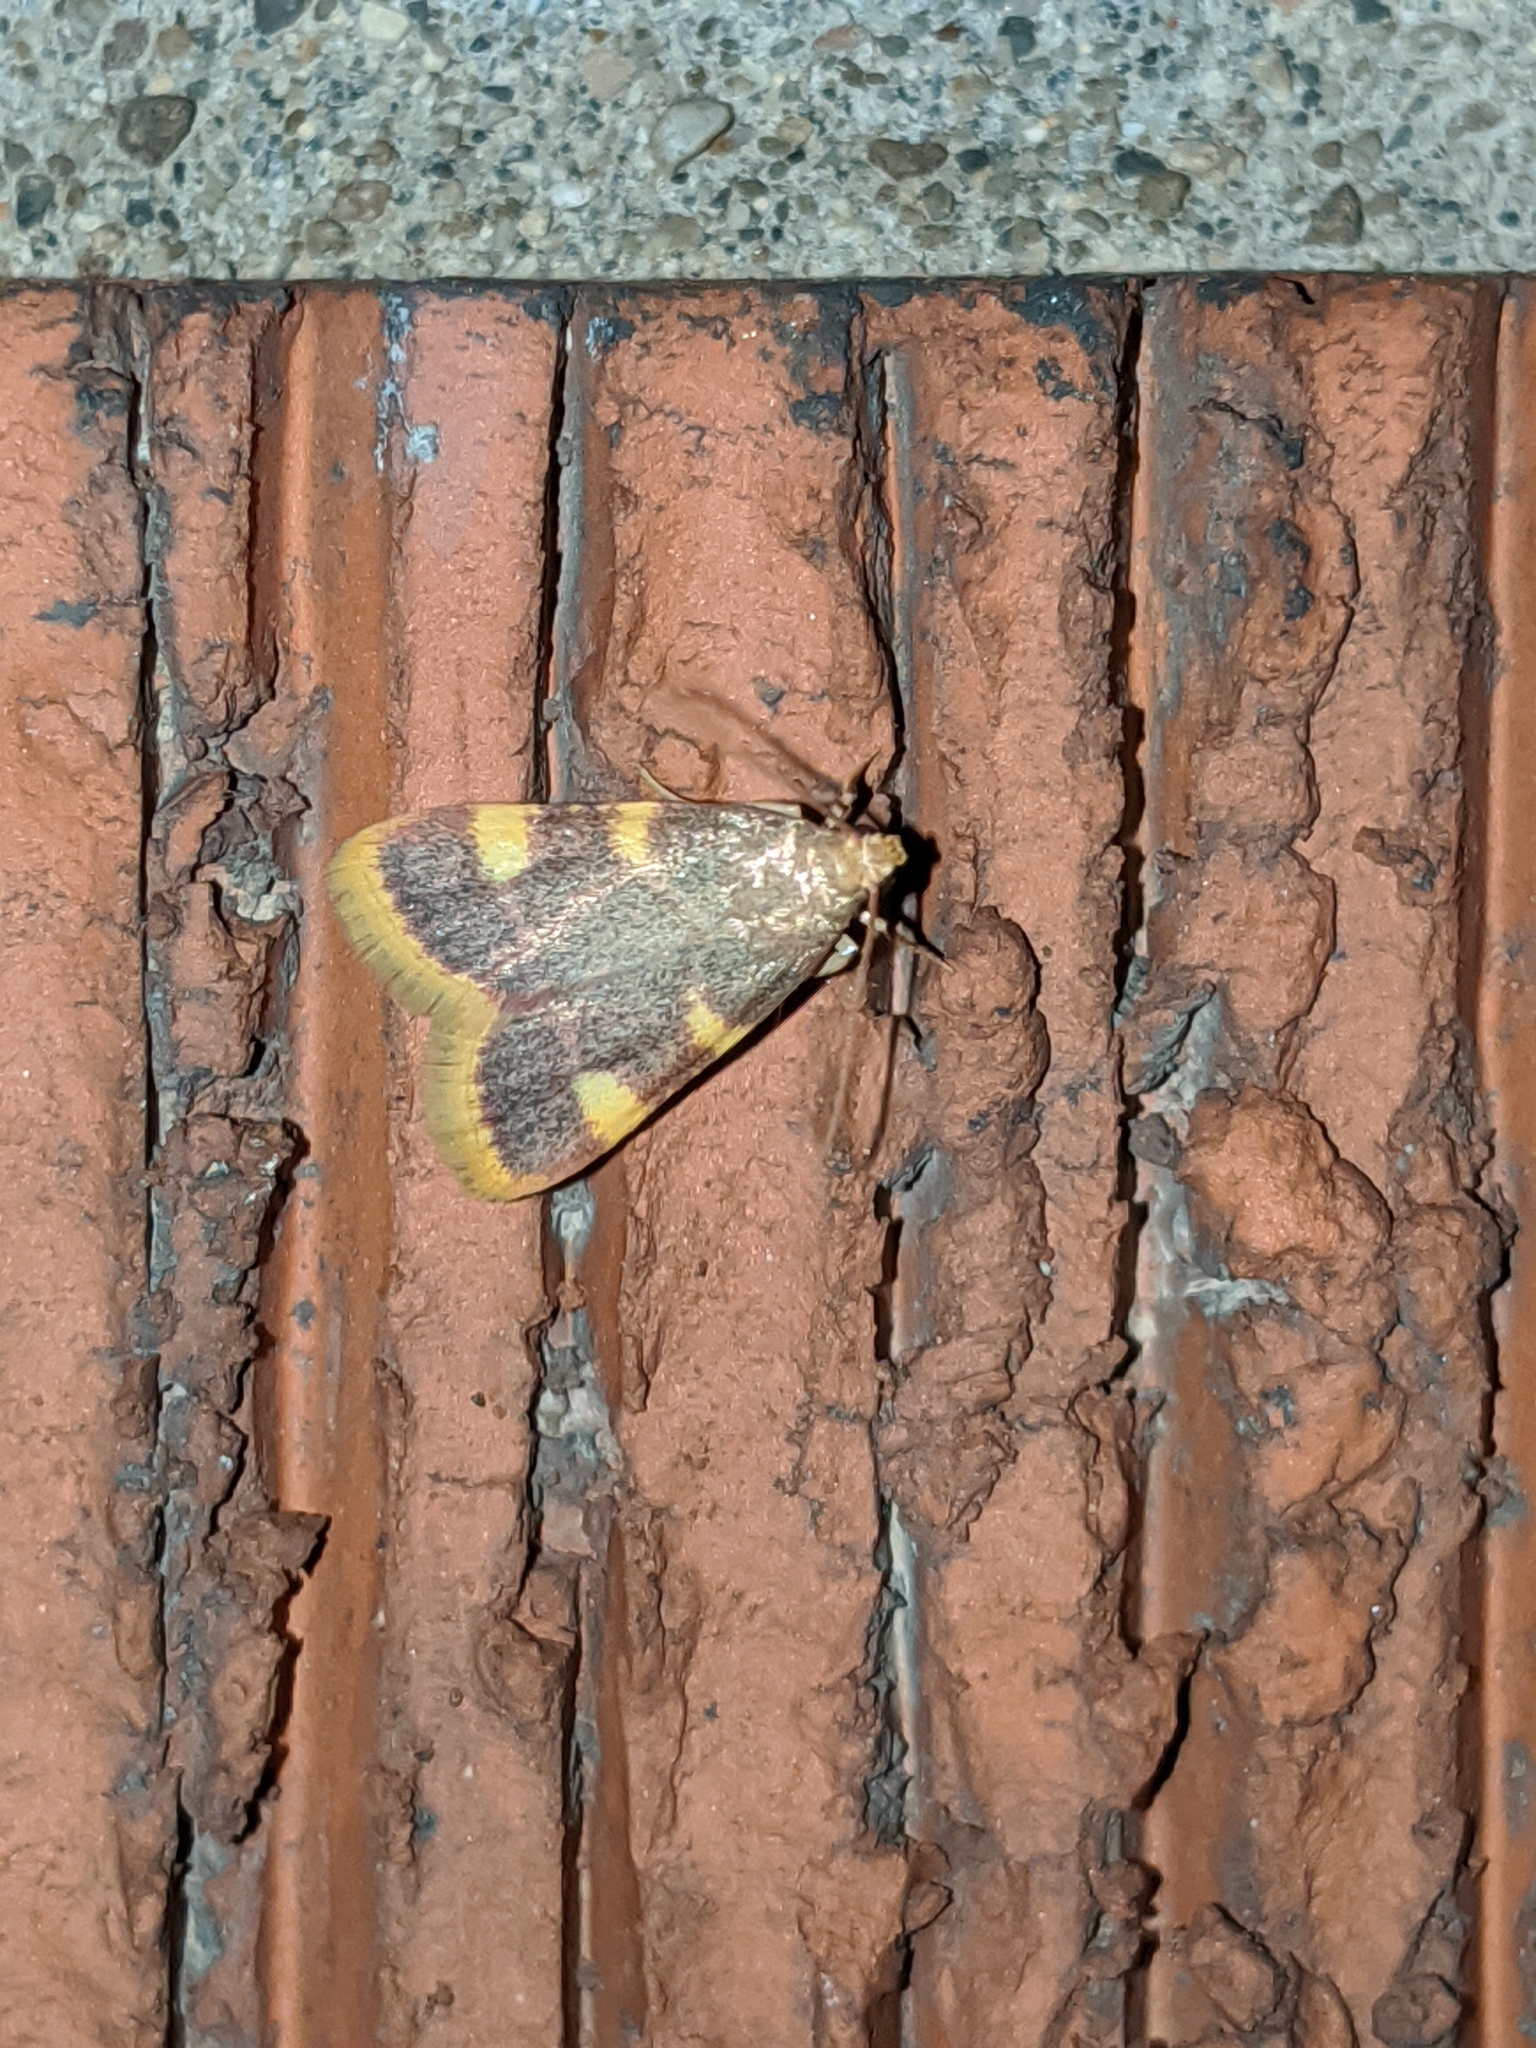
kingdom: Animalia
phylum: Arthropoda
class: Insecta
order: Lepidoptera
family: Pyralidae
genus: Hypsopygia
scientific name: Hypsopygia costalis
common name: Gold triangle
